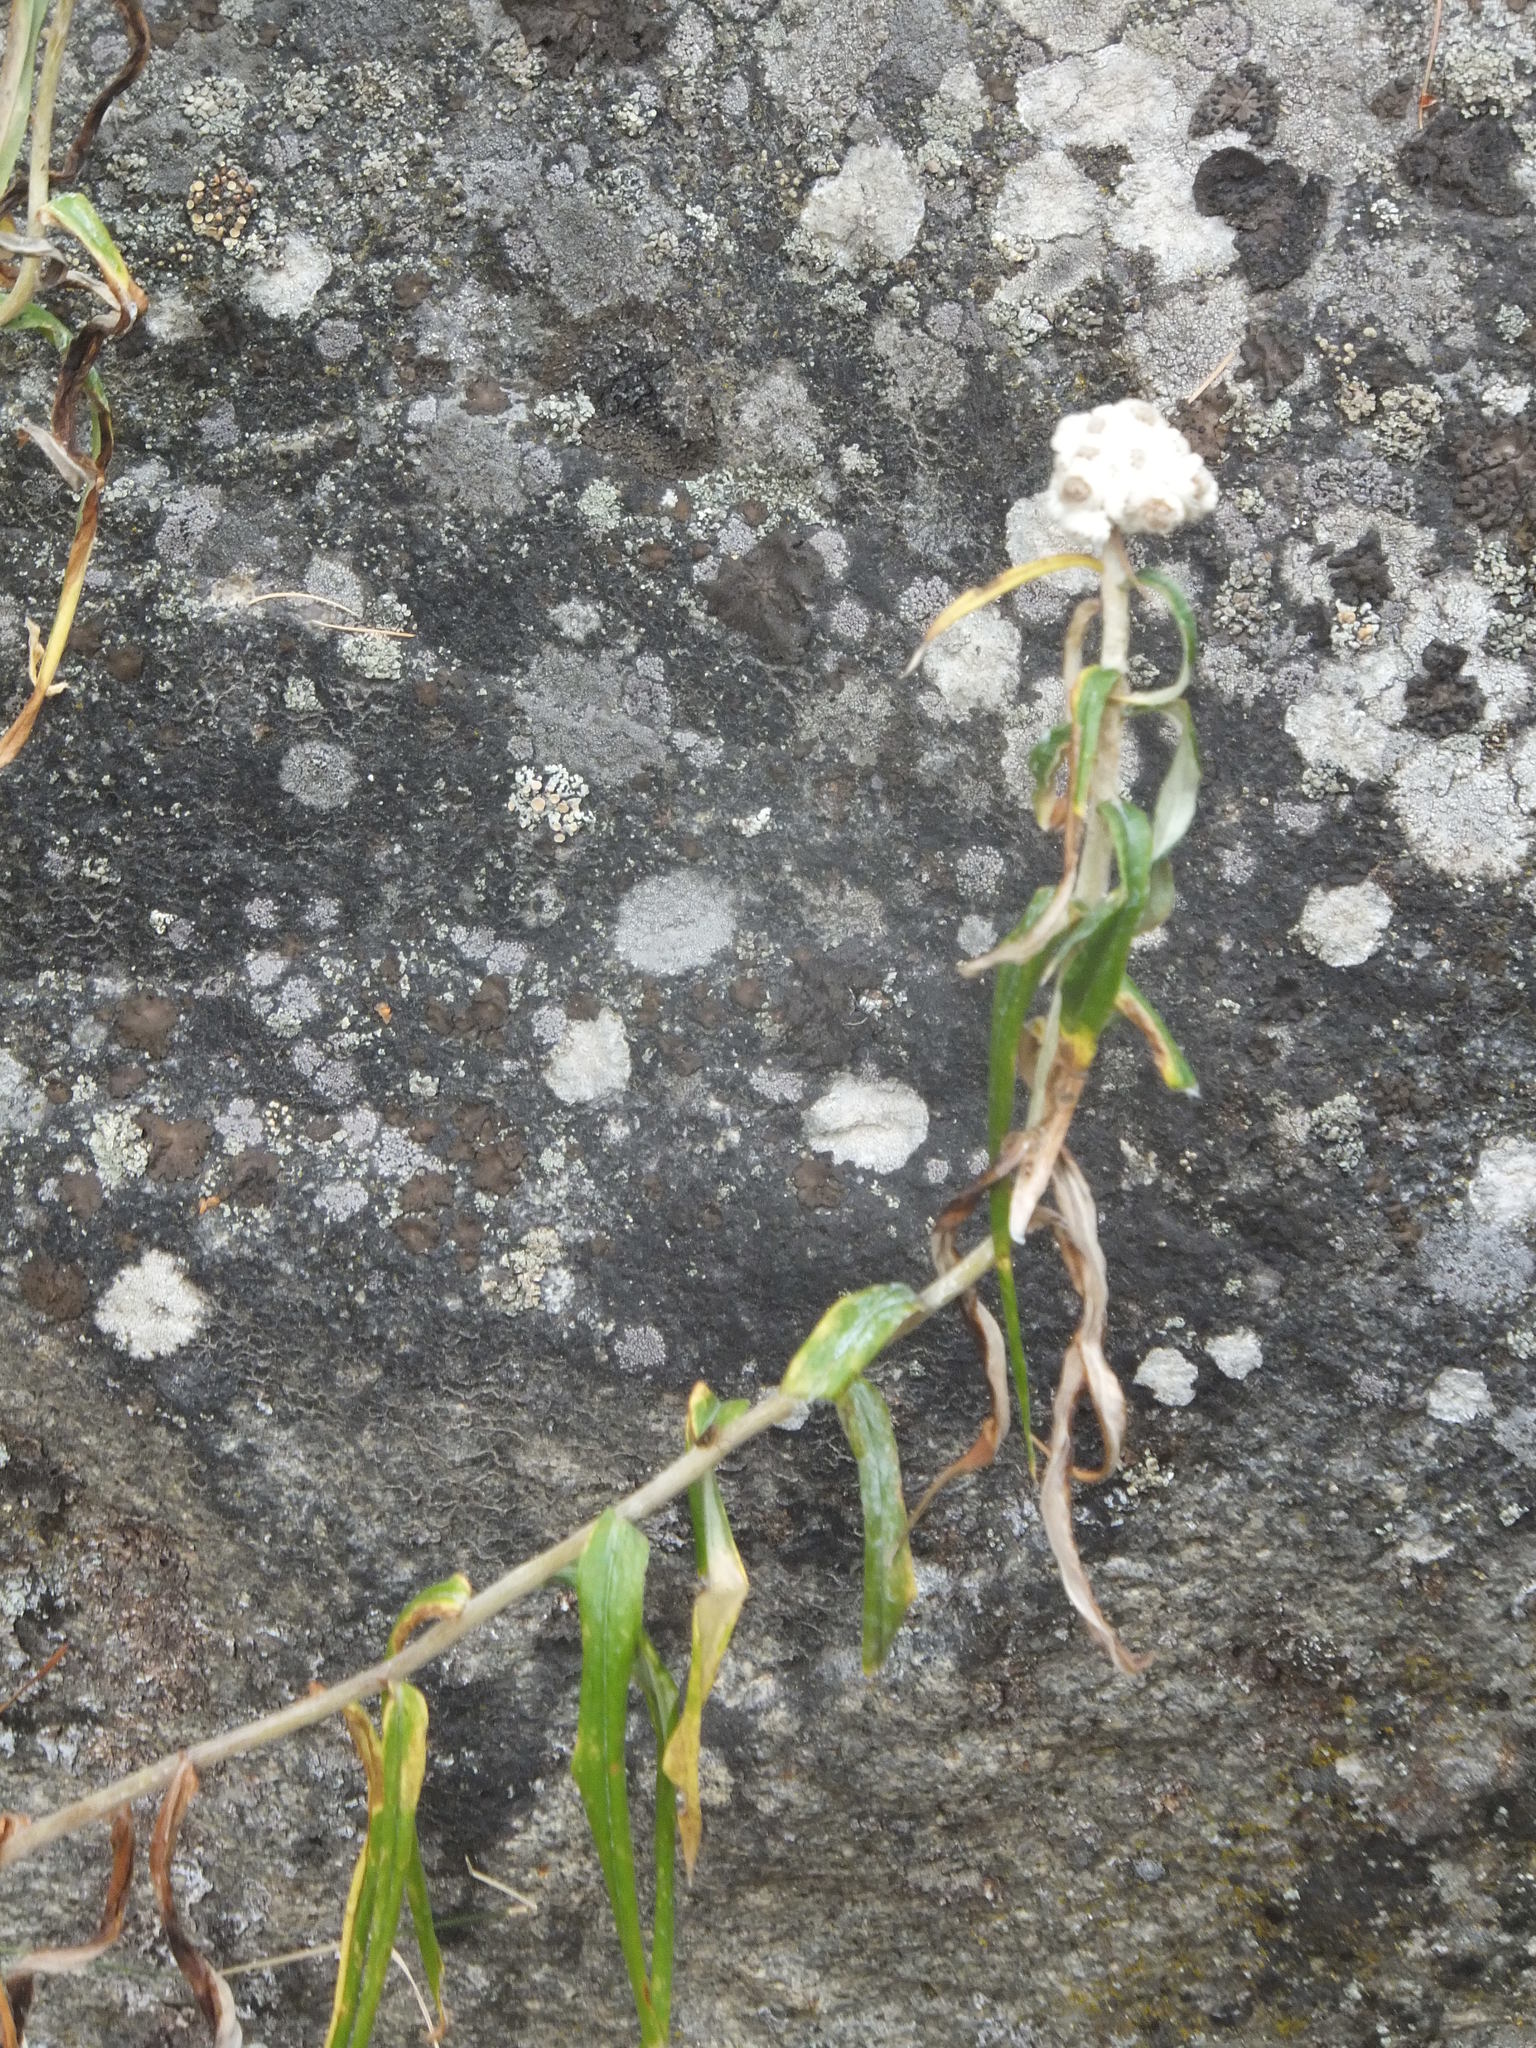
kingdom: Plantae
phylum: Tracheophyta
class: Magnoliopsida
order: Asterales
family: Asteraceae
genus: Anaphalis
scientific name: Anaphalis margaritacea
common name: Pearly everlasting
